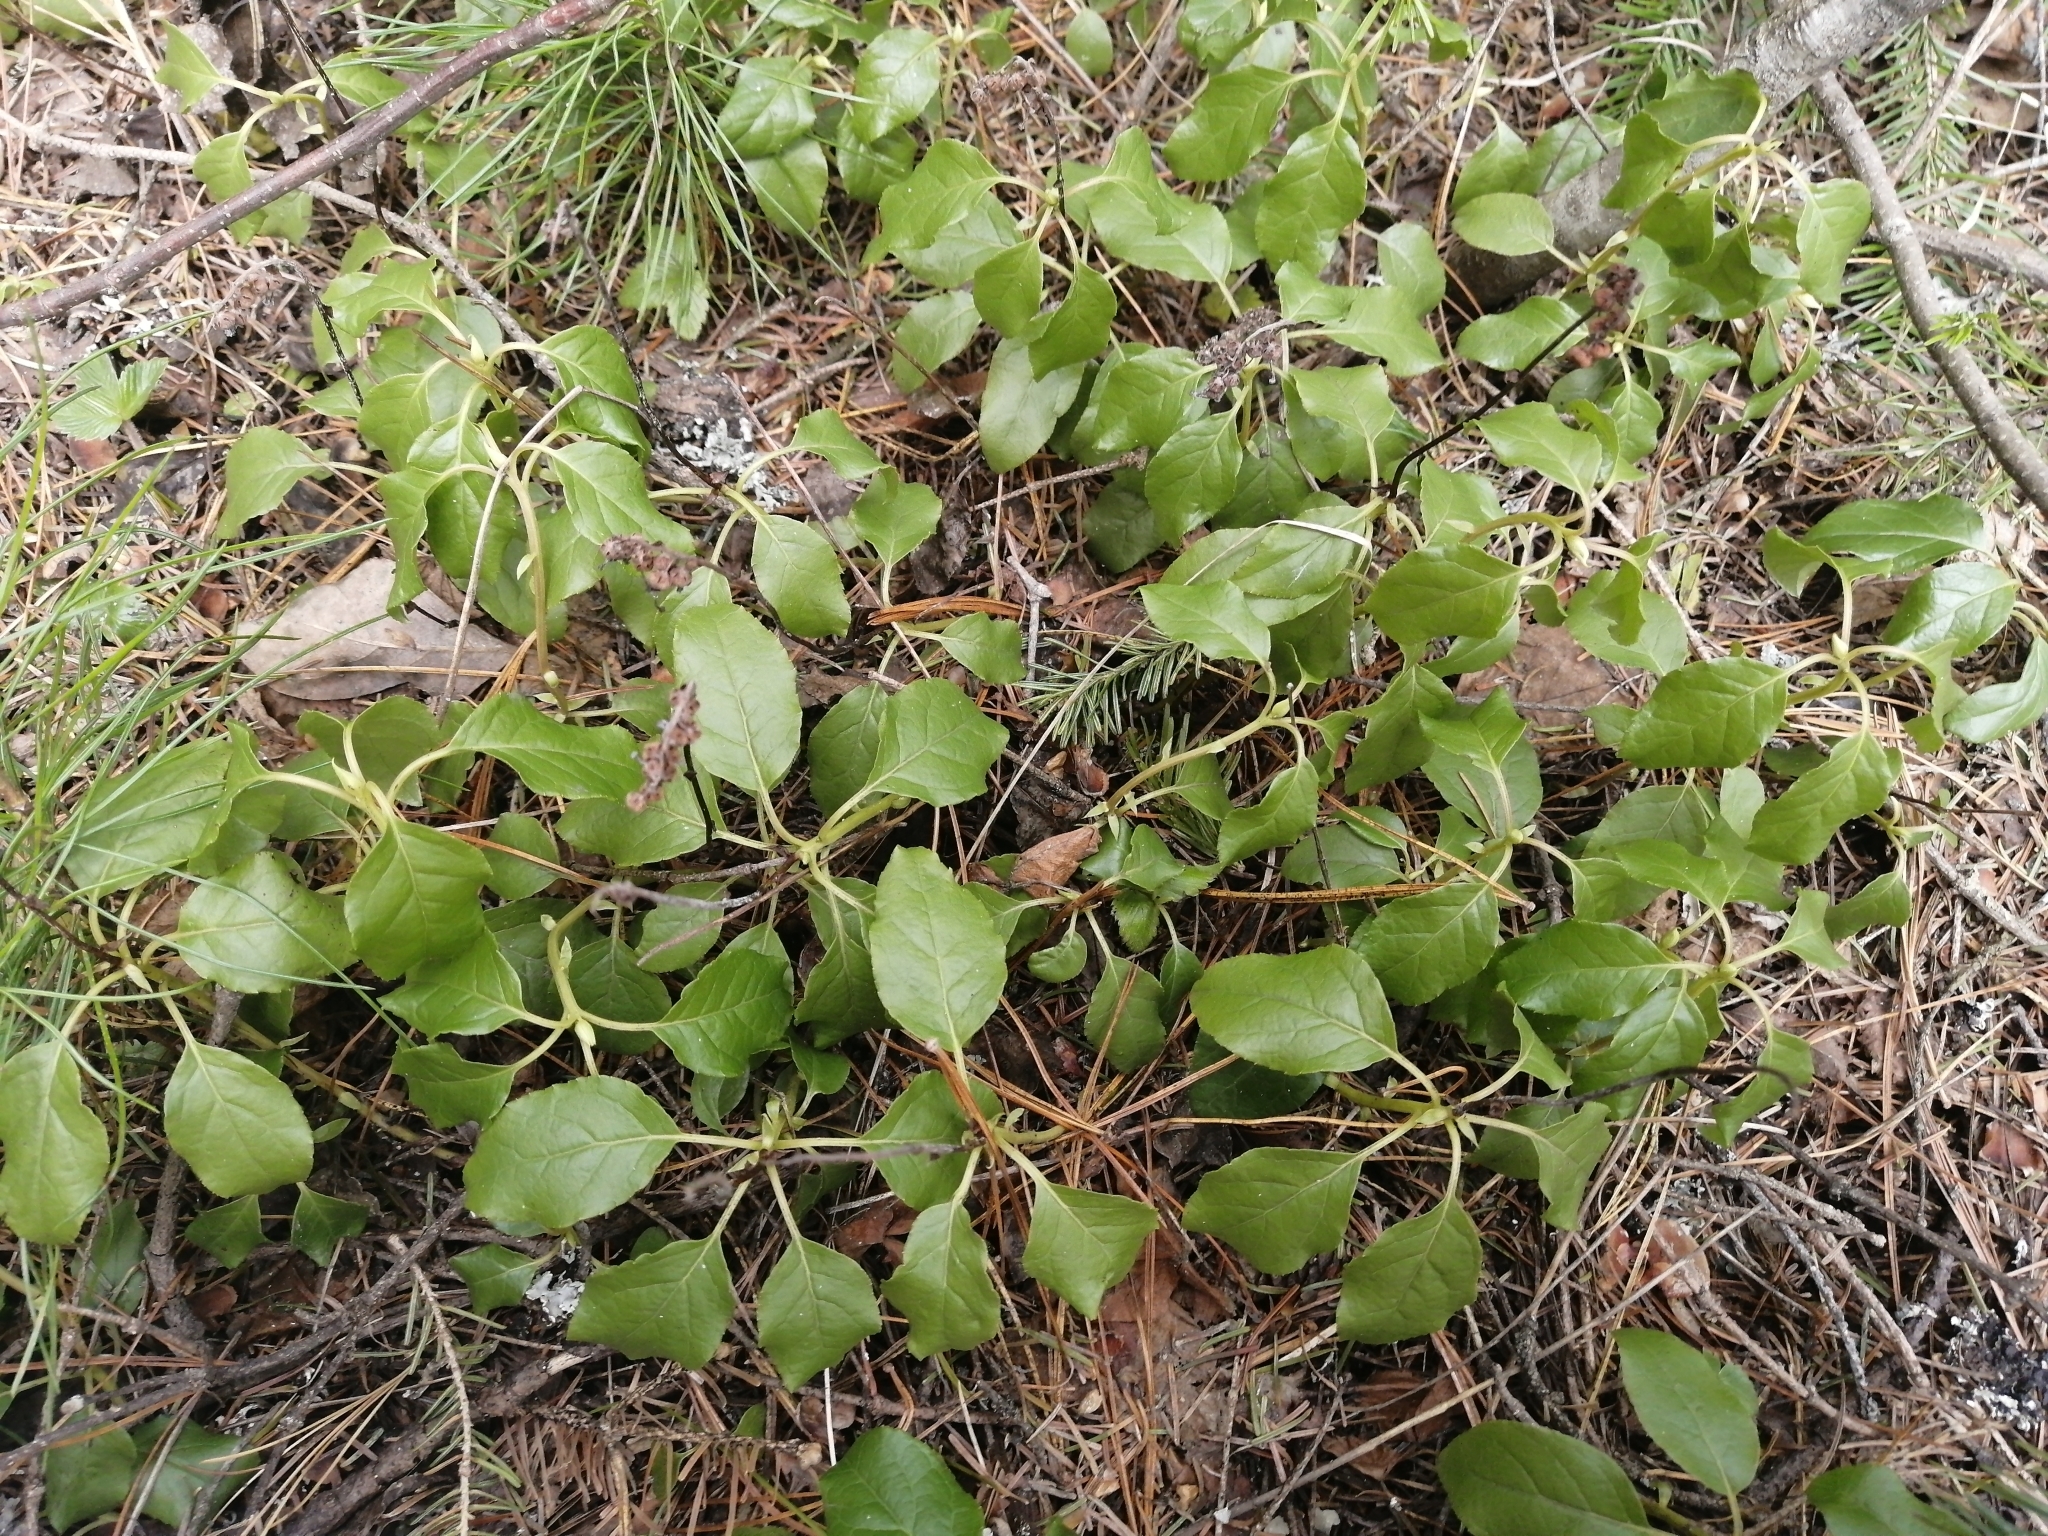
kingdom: Plantae
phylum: Tracheophyta
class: Magnoliopsida
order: Ericales
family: Ericaceae
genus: Orthilia
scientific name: Orthilia secunda
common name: One-sided orthilia
